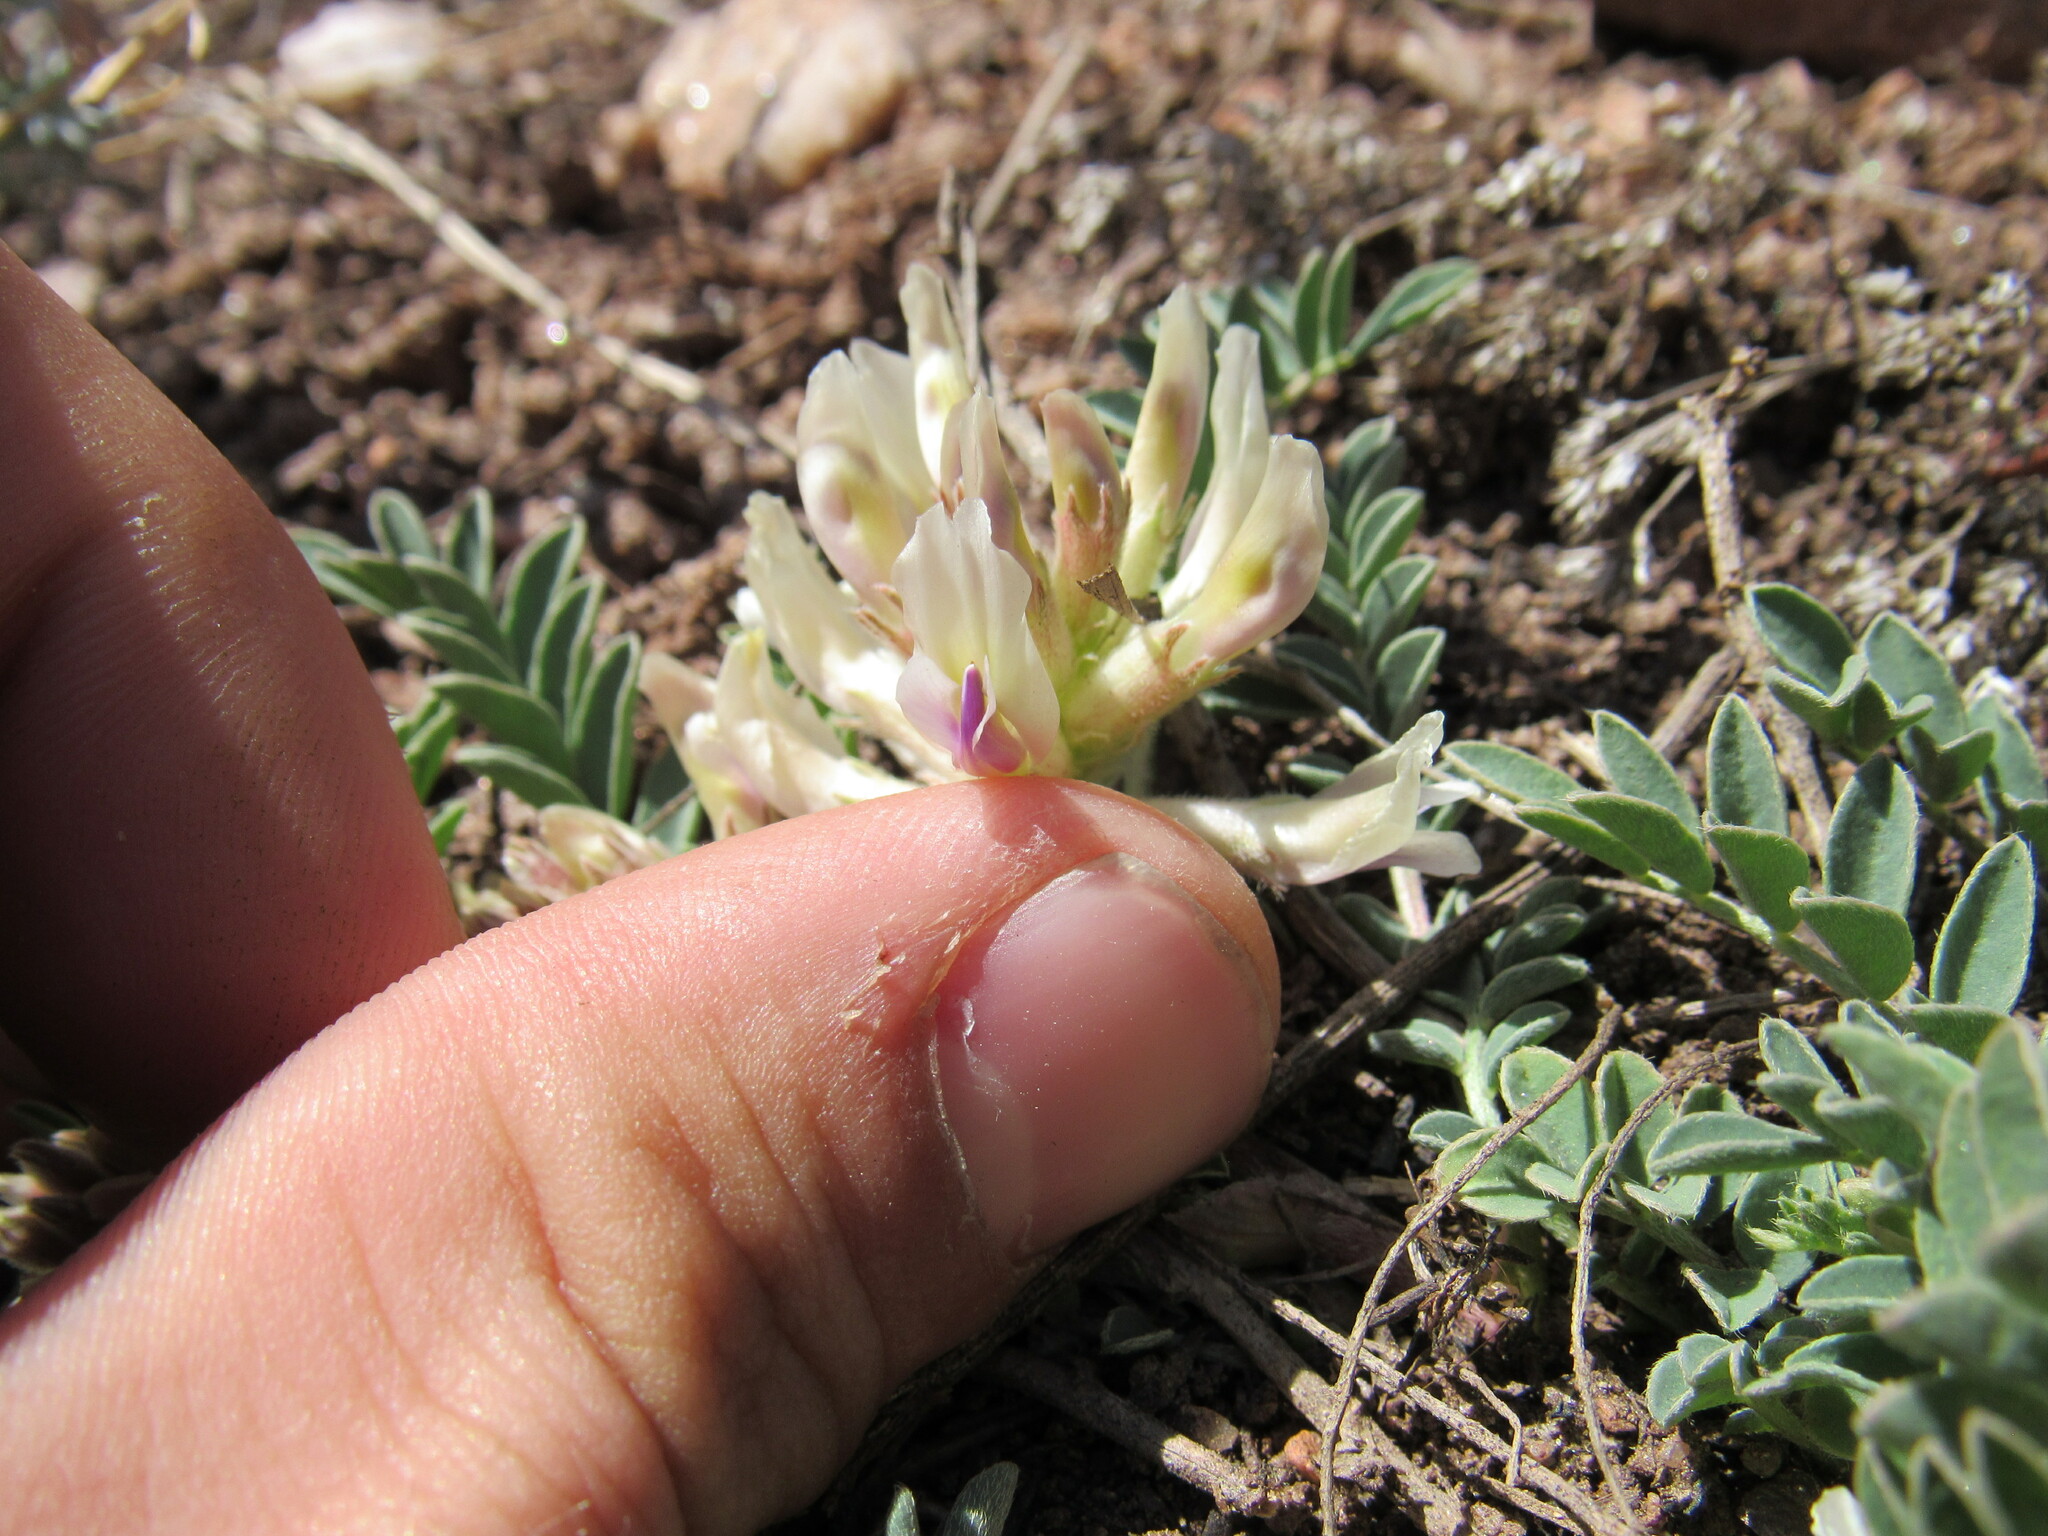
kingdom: Plantae
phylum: Tracheophyta
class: Magnoliopsida
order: Fabales
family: Fabaceae
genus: Astragalus
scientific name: Astragalus crassicarpus
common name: Ground-plum milk-vetch
